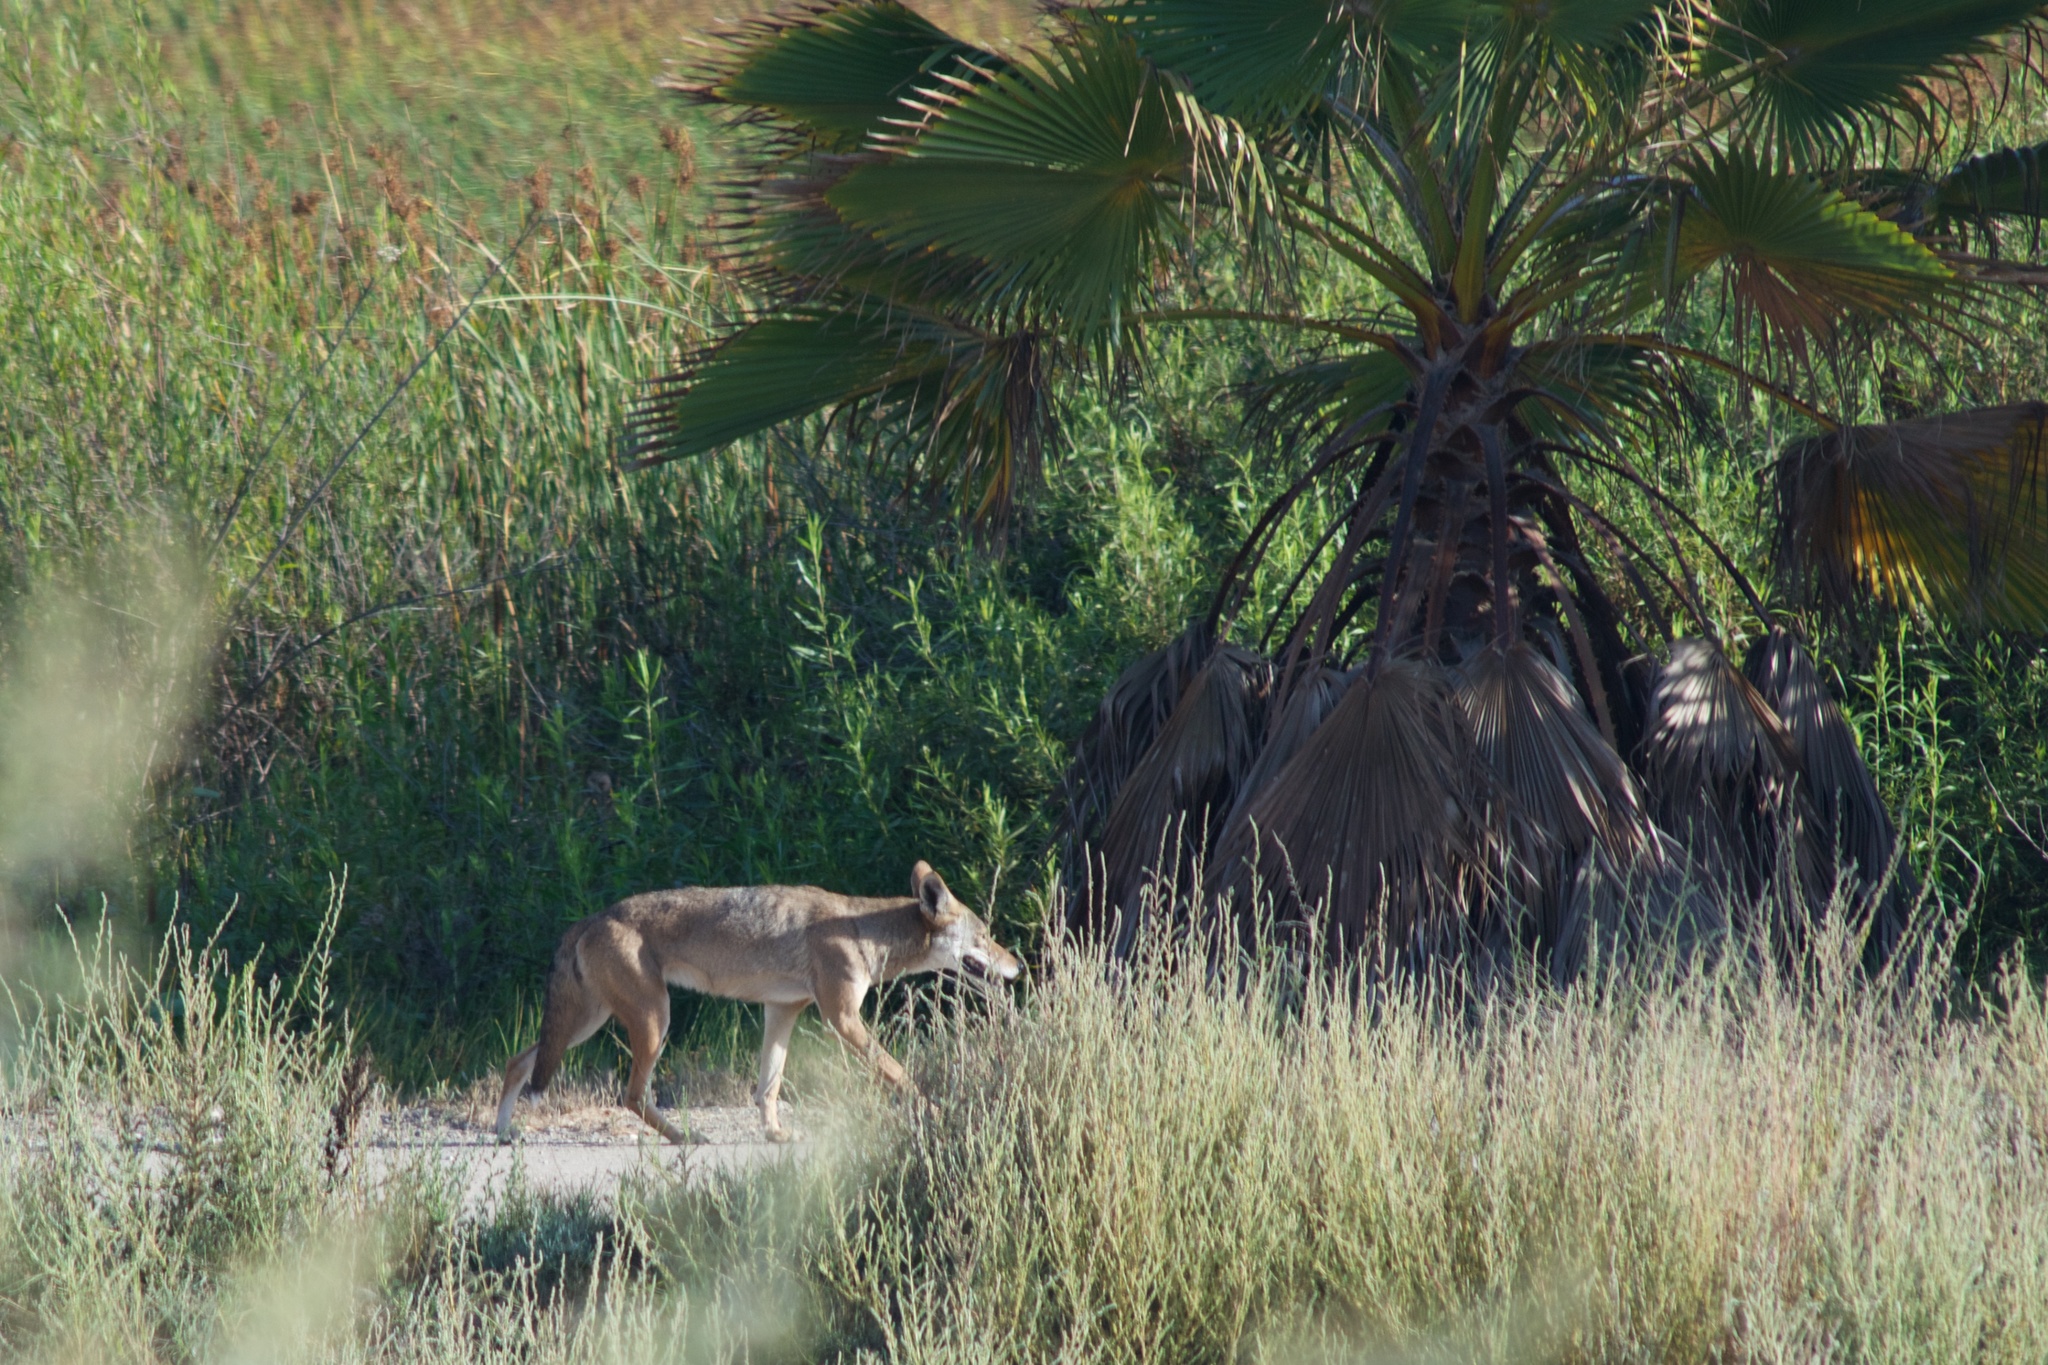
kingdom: Animalia
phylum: Chordata
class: Mammalia
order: Carnivora
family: Canidae
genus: Canis
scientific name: Canis latrans
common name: Coyote
